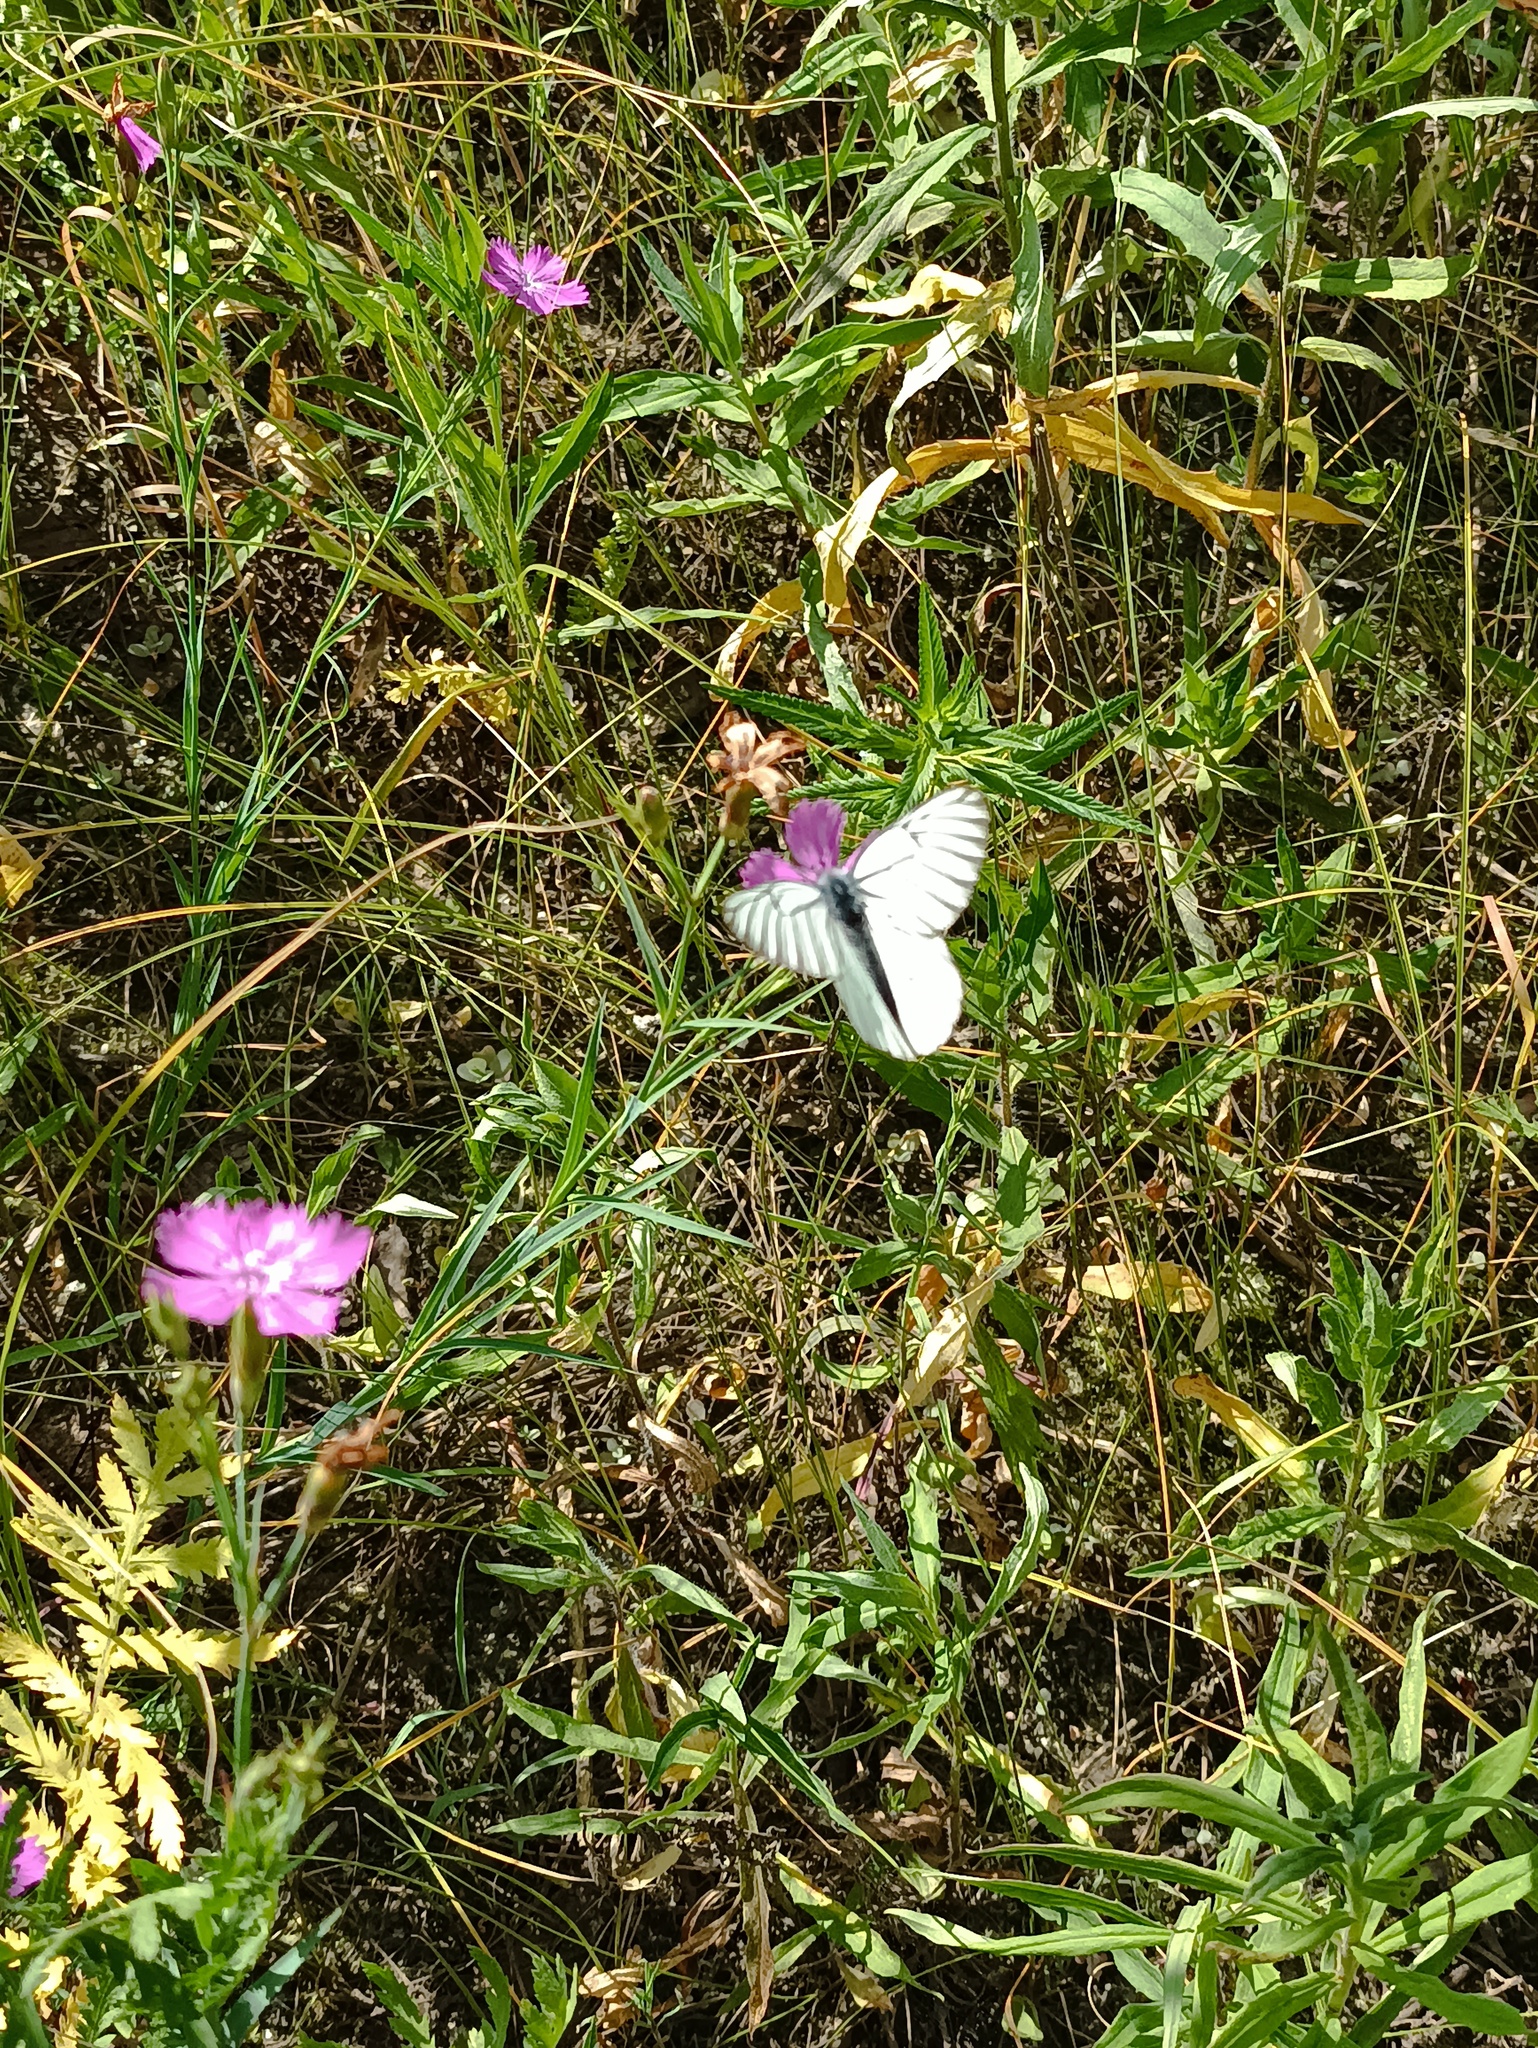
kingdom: Animalia
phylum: Arthropoda
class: Insecta
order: Lepidoptera
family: Pieridae
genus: Aporia
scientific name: Aporia crataegi
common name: Black-veined white
